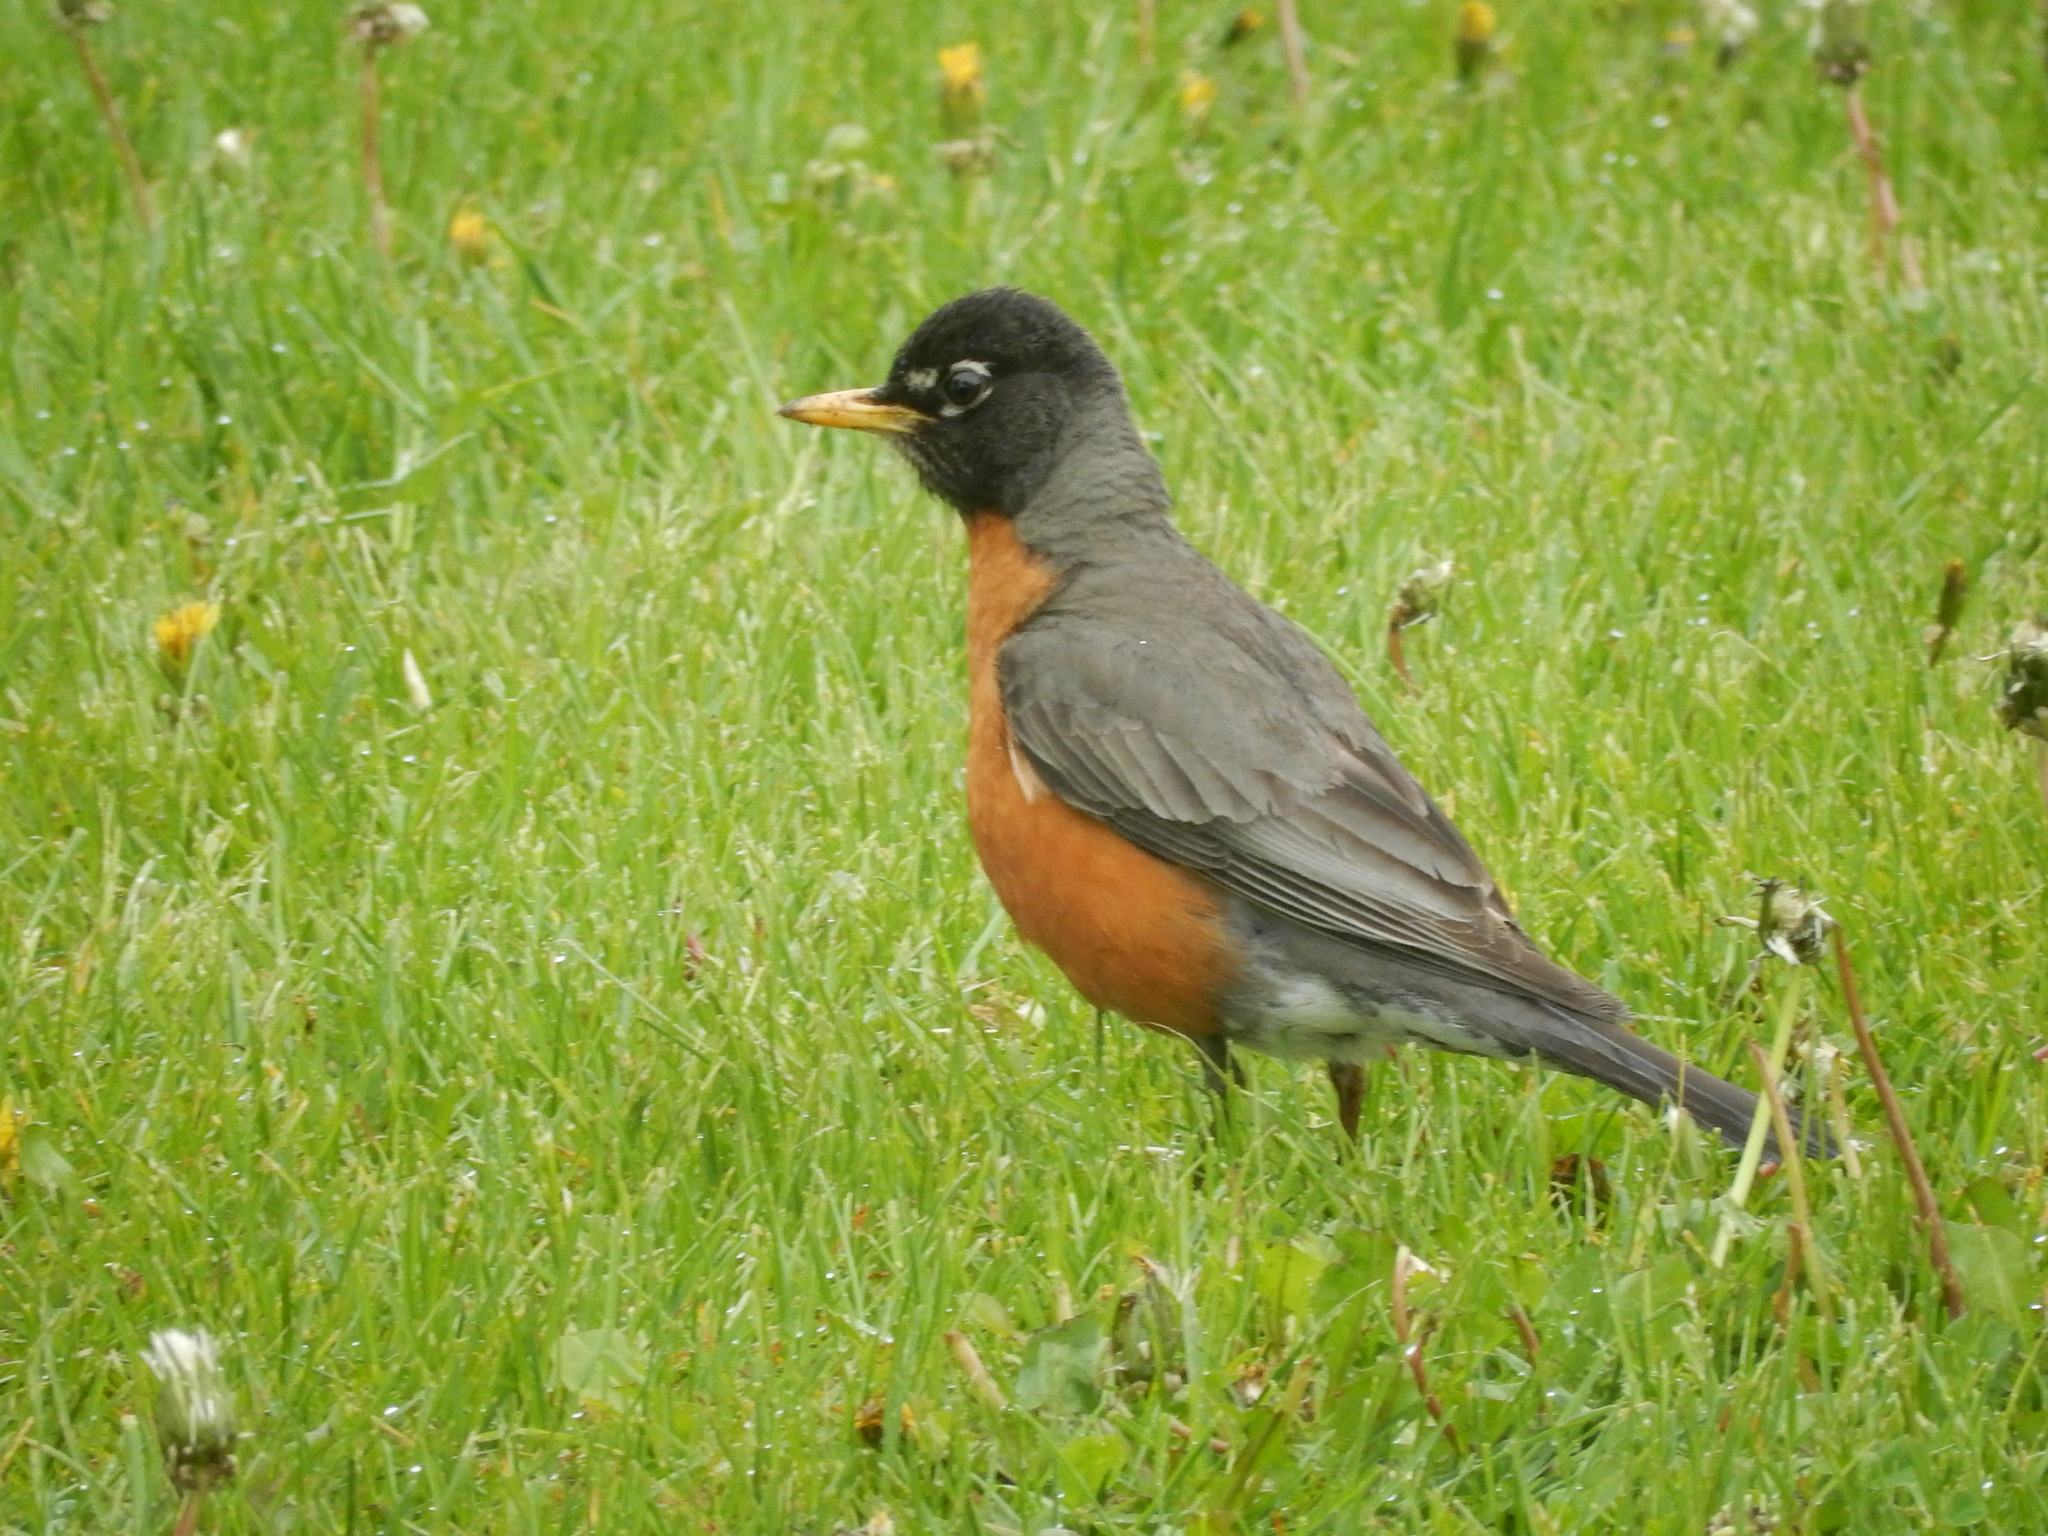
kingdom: Animalia
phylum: Chordata
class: Aves
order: Passeriformes
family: Turdidae
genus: Turdus
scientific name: Turdus migratorius
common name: American robin
